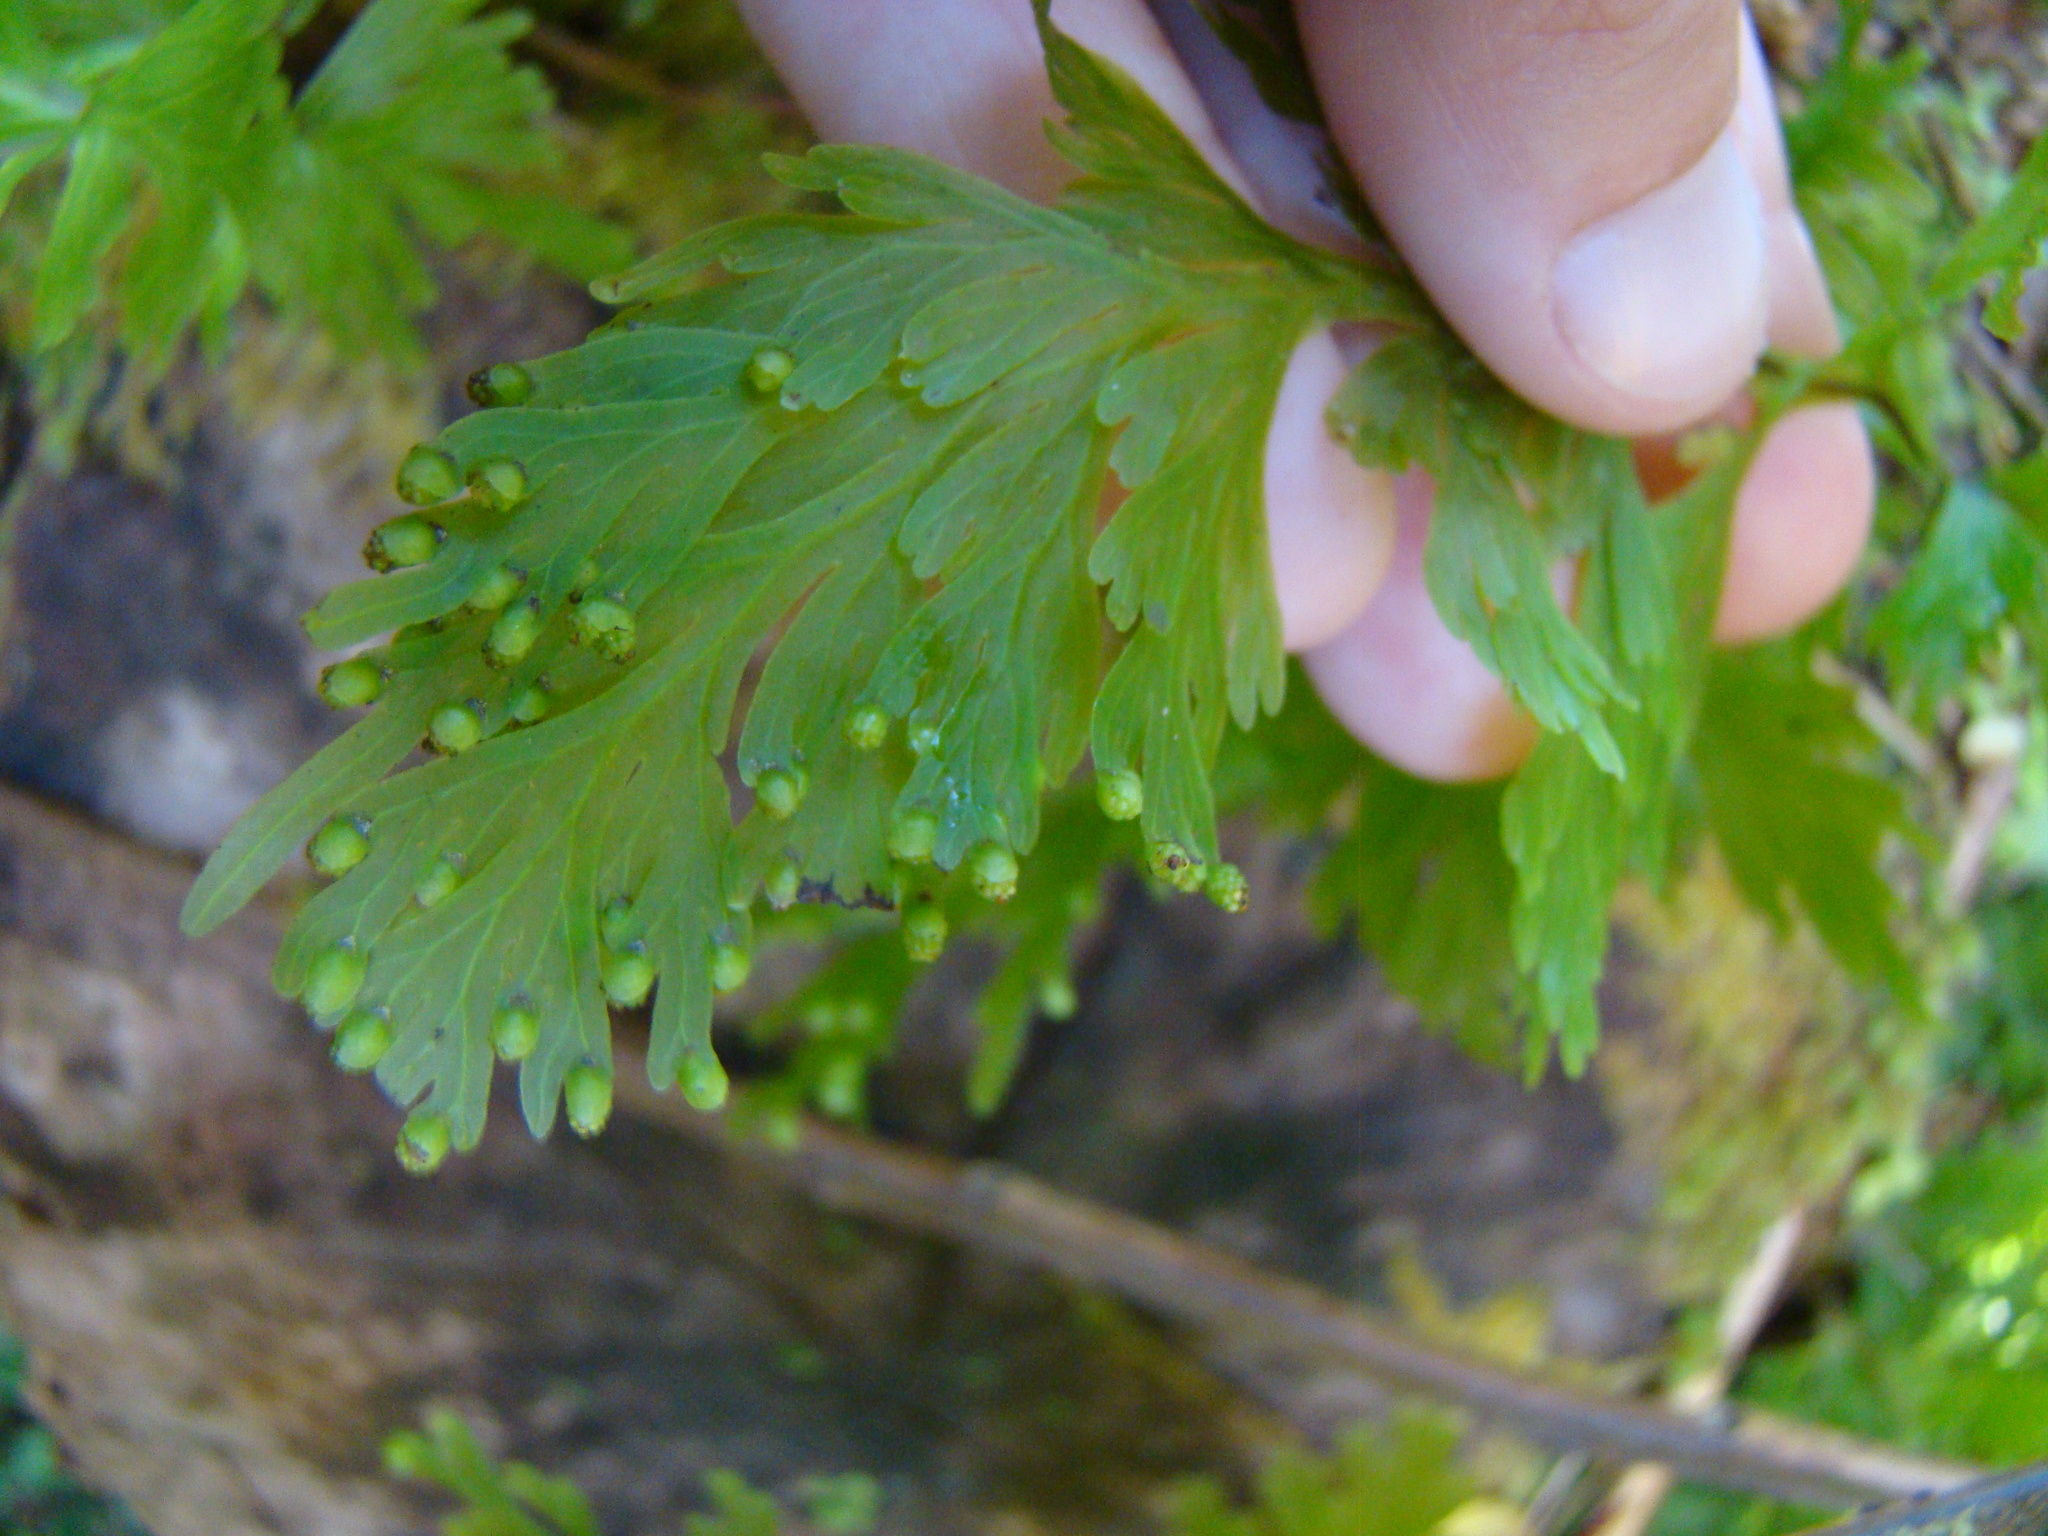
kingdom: Plantae
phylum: Tracheophyta
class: Polypodiopsida
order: Hymenophyllales
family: Hymenophyllaceae
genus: Hymenophyllum
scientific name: Hymenophyllum dilatatum
